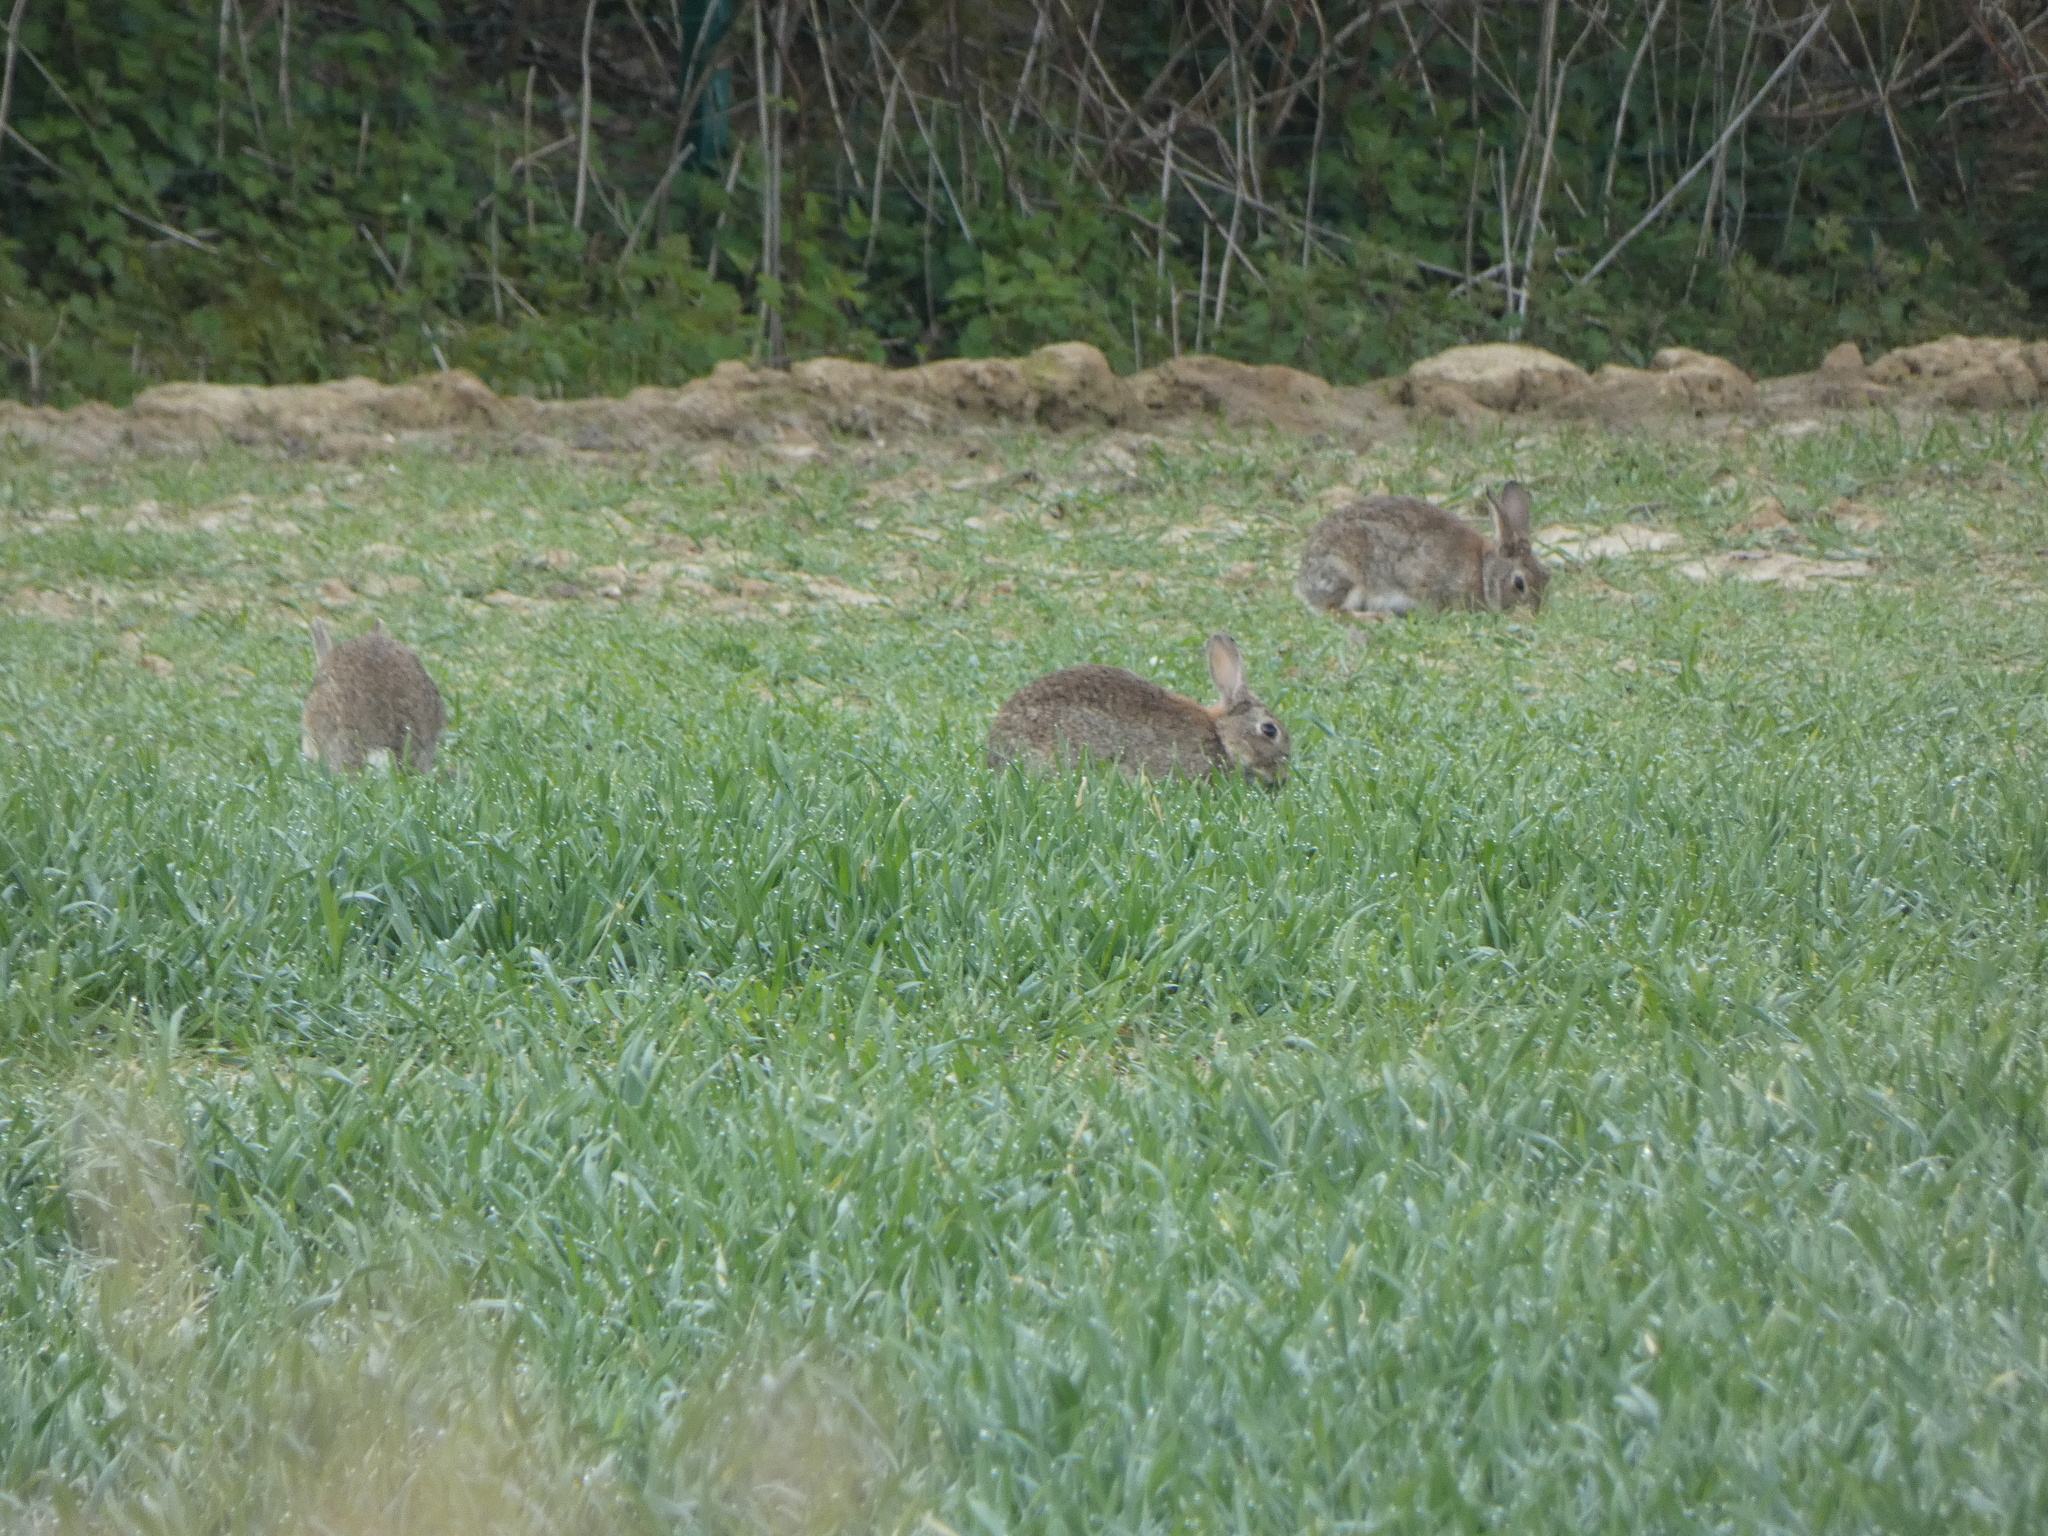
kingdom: Animalia
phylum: Chordata
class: Mammalia
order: Lagomorpha
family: Leporidae
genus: Oryctolagus
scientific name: Oryctolagus cuniculus
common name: European rabbit
